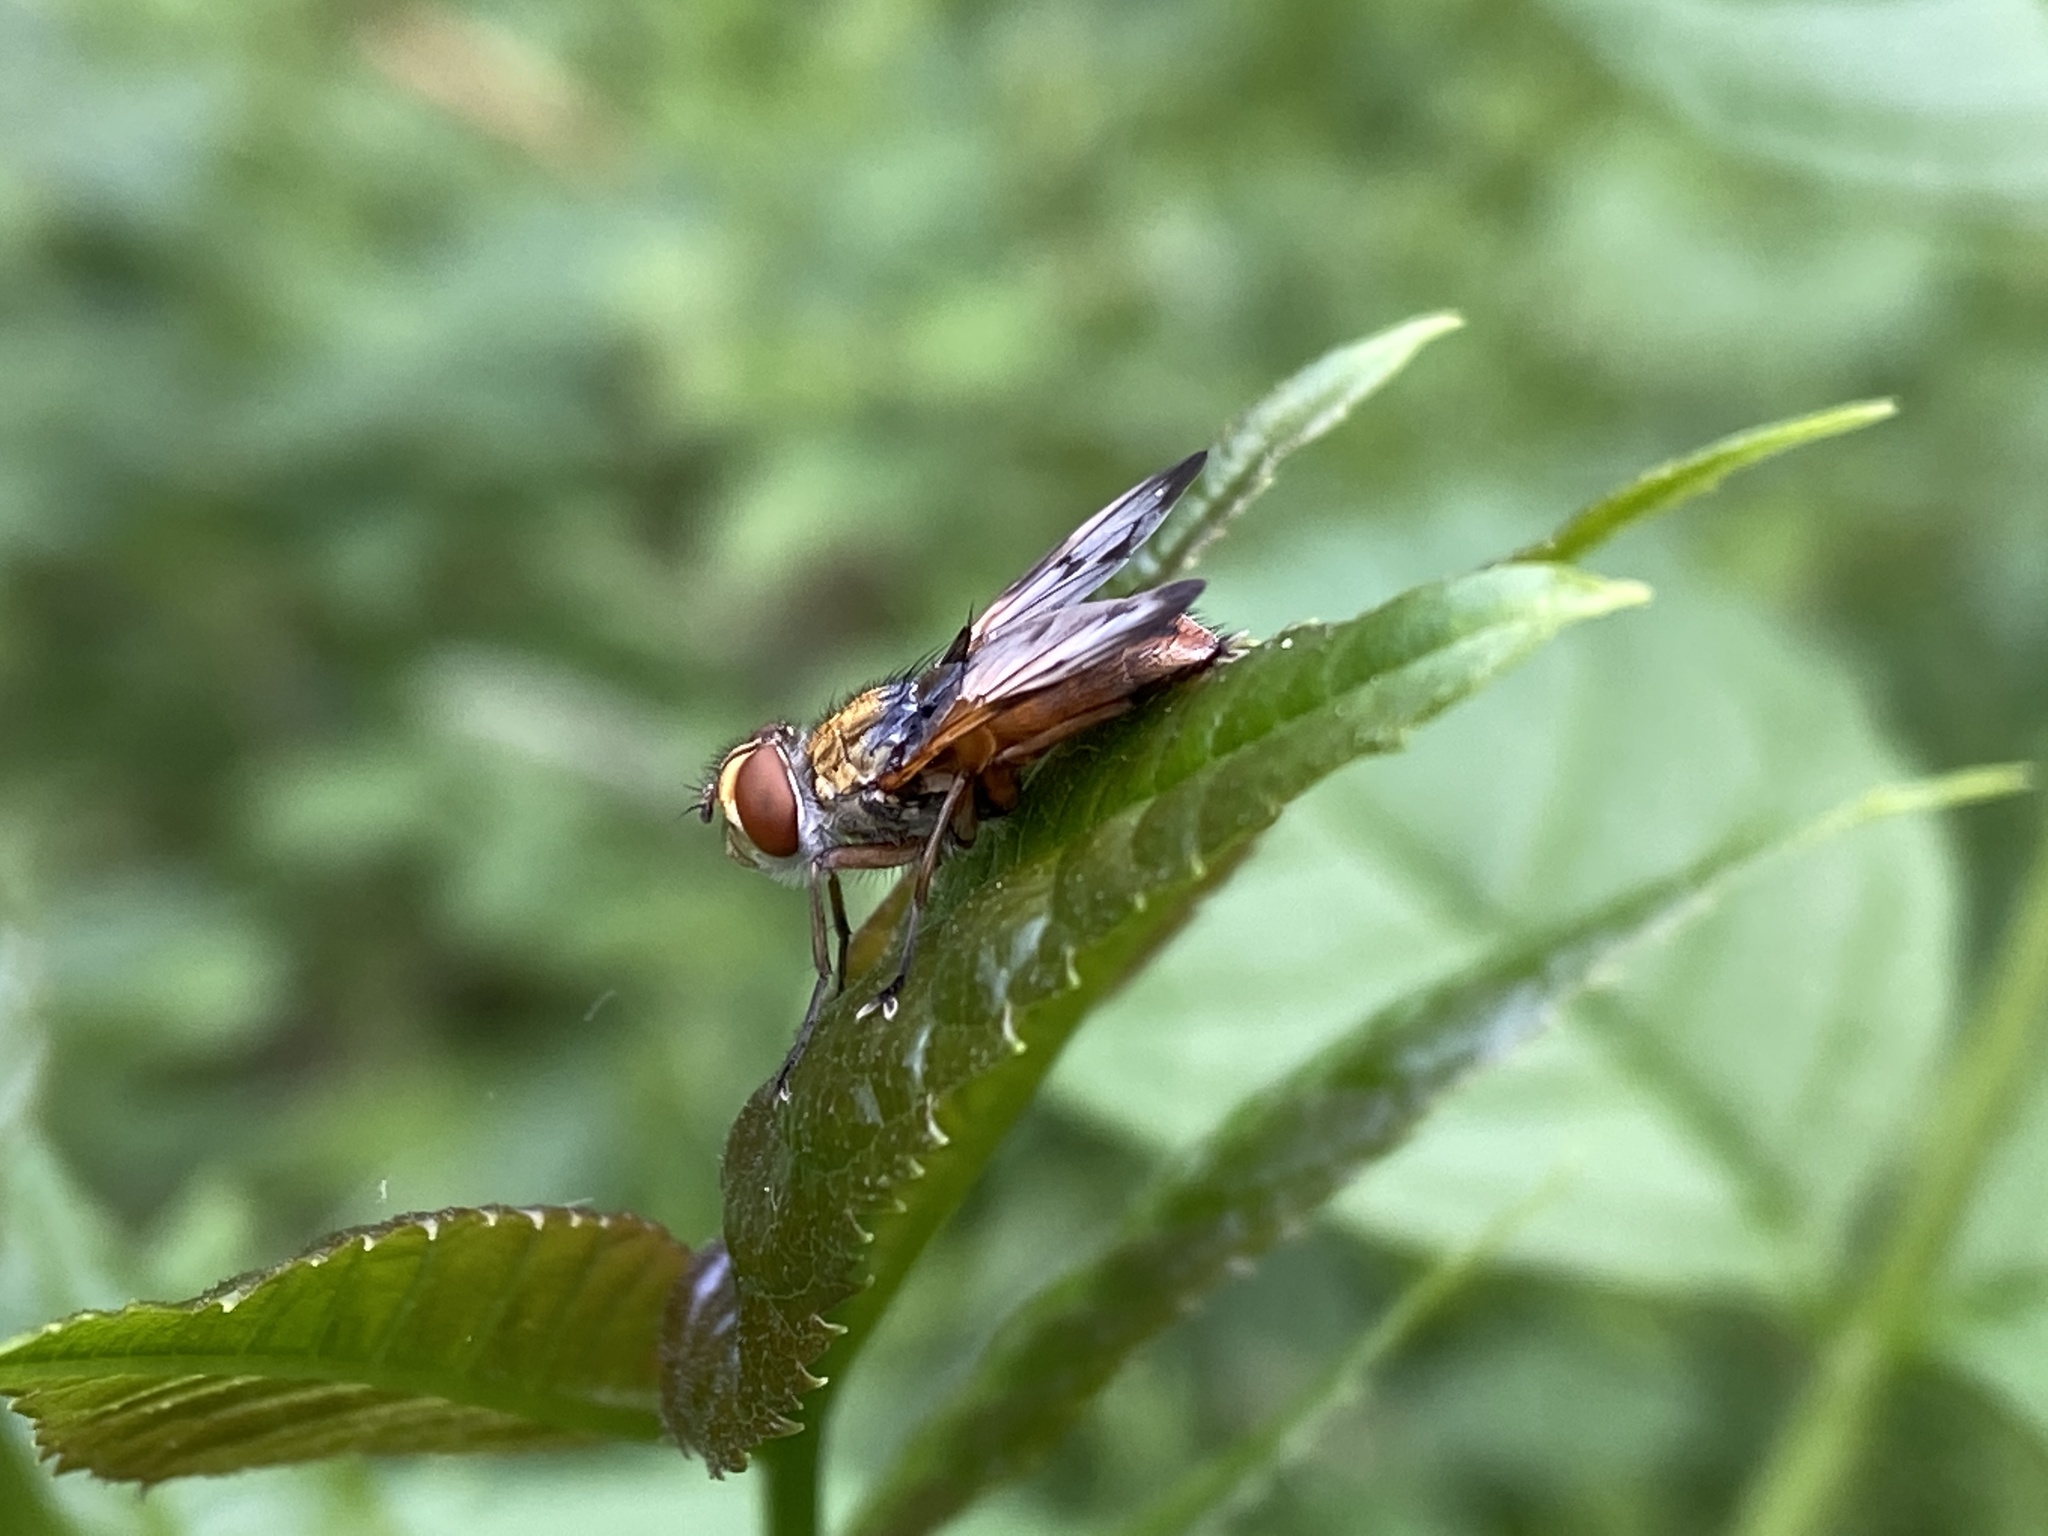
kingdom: Animalia
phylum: Arthropoda
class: Insecta
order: Diptera
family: Tachinidae
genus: Ectophasia
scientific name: Ectophasia crassipennis
